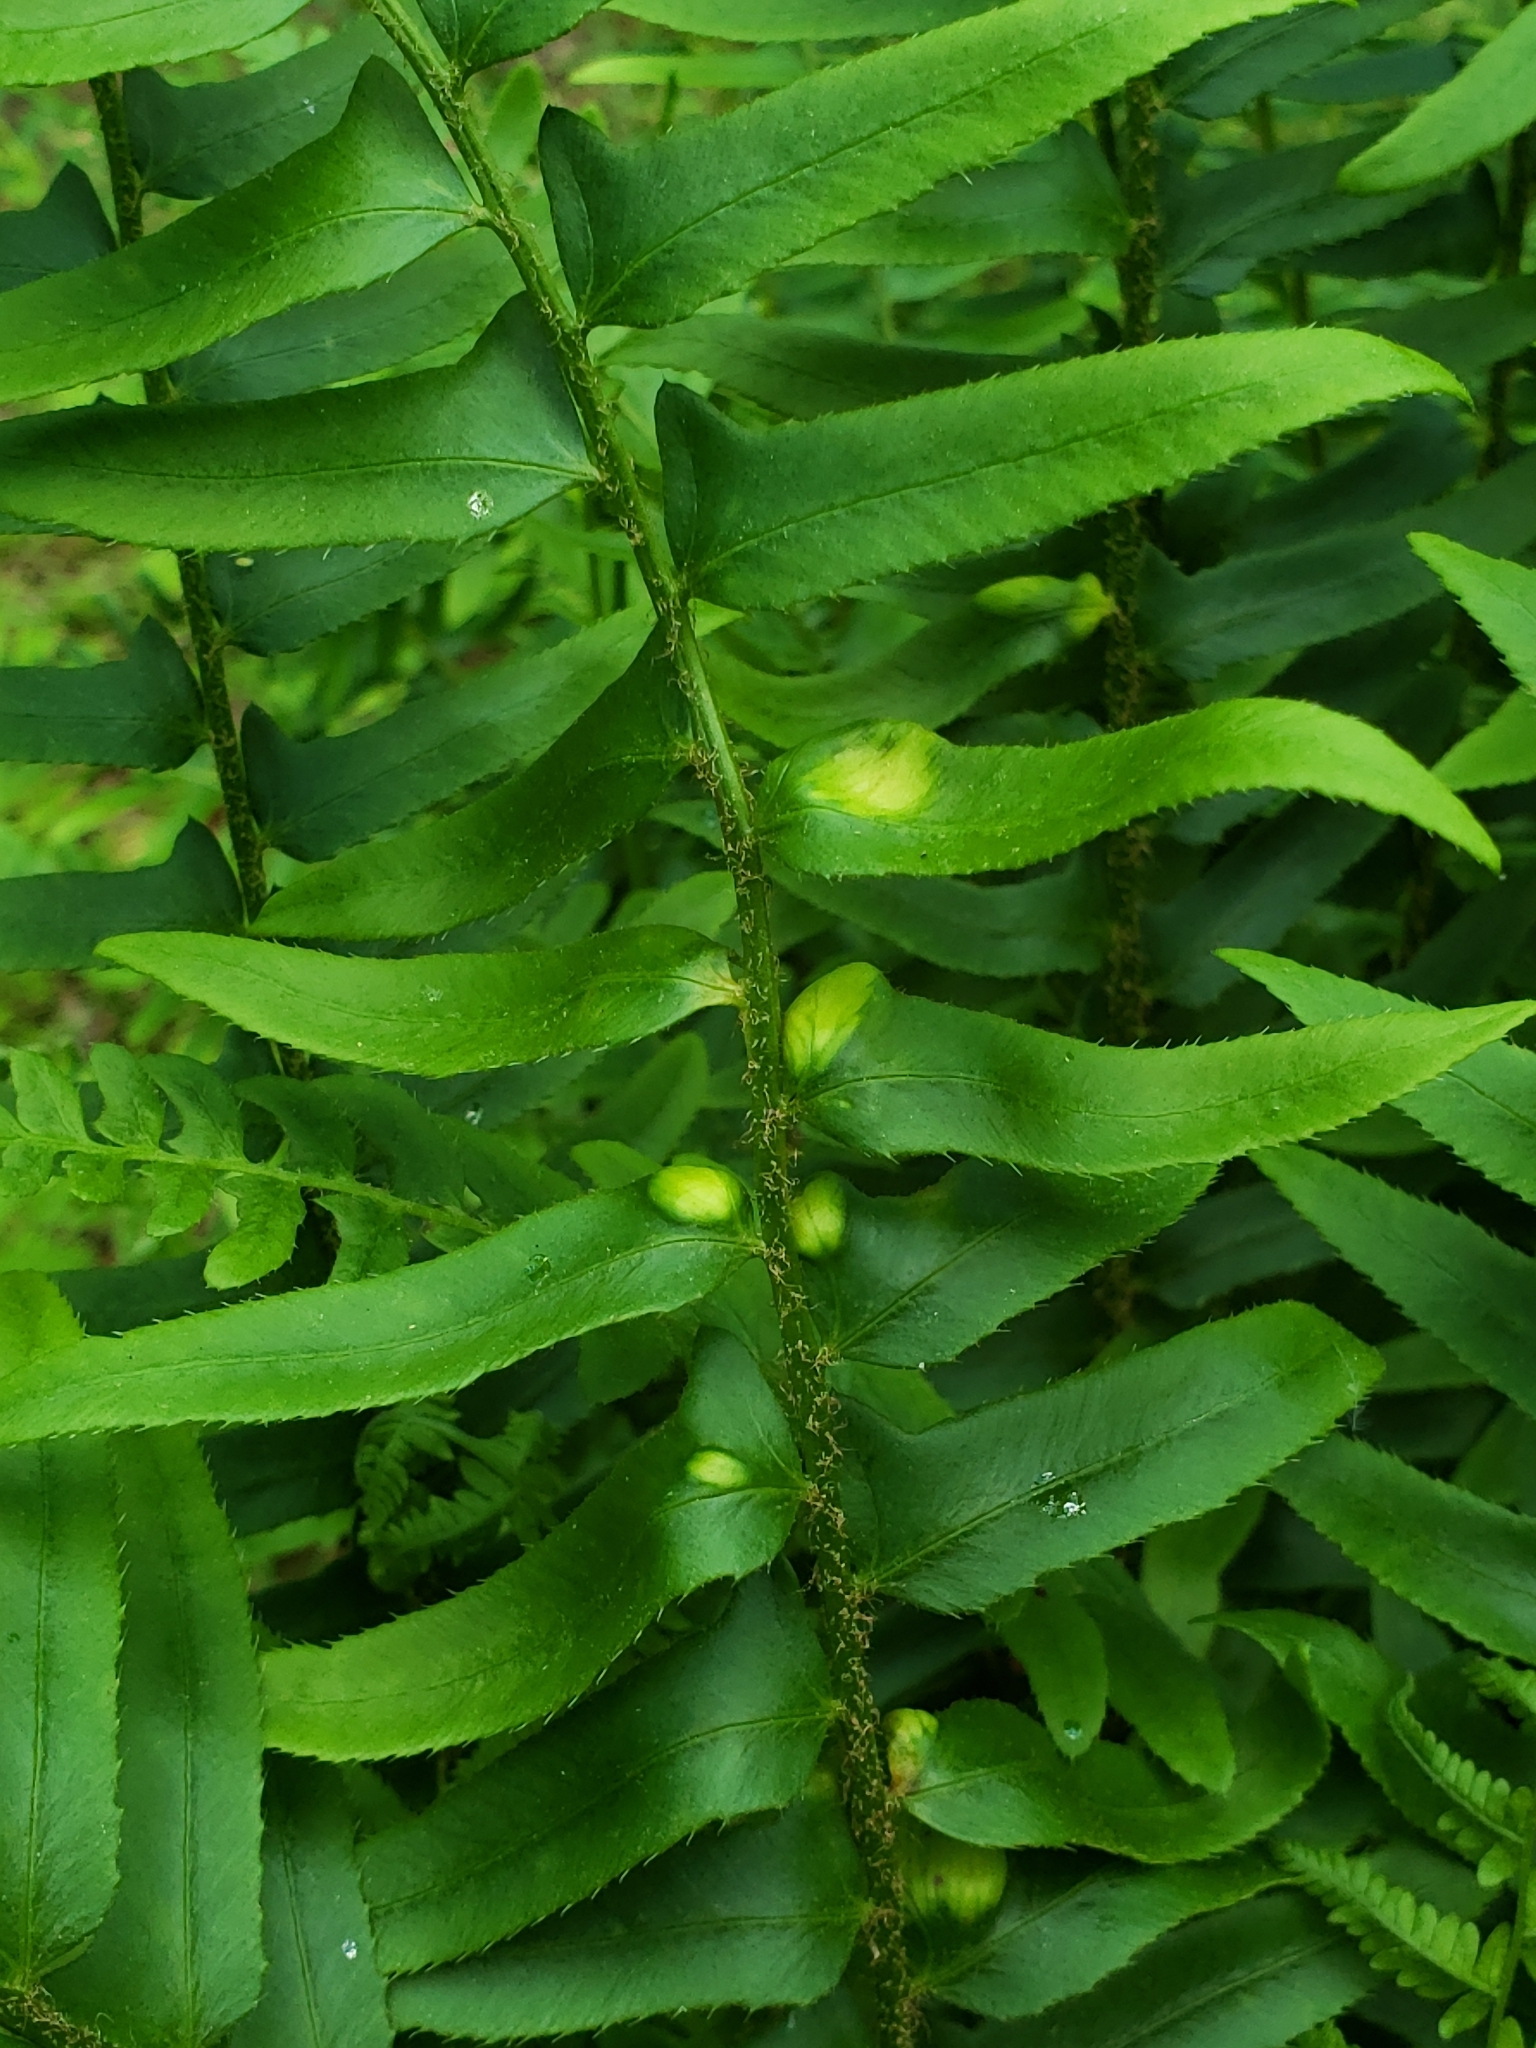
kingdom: Fungi
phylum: Ascomycota
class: Taphrinomycetes
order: Taphrinales
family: Taphrinaceae
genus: Taphrina
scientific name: Taphrina polystichi
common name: Christmas fern leaf curl
